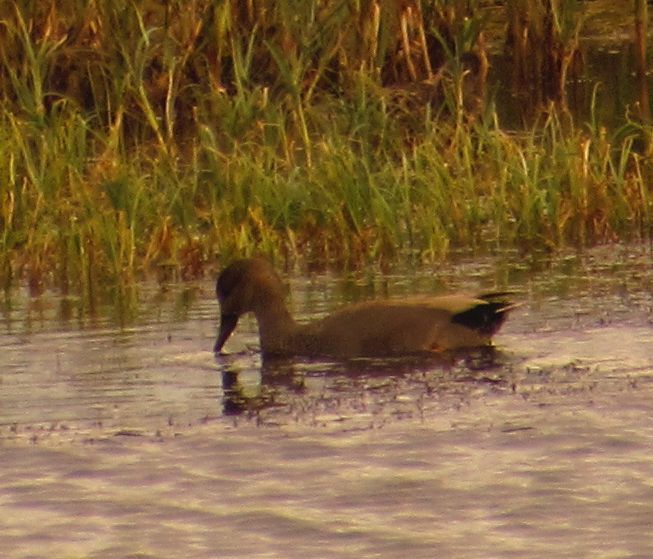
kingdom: Animalia
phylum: Chordata
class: Aves
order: Anseriformes
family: Anatidae
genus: Mareca
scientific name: Mareca strepera
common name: Gadwall
